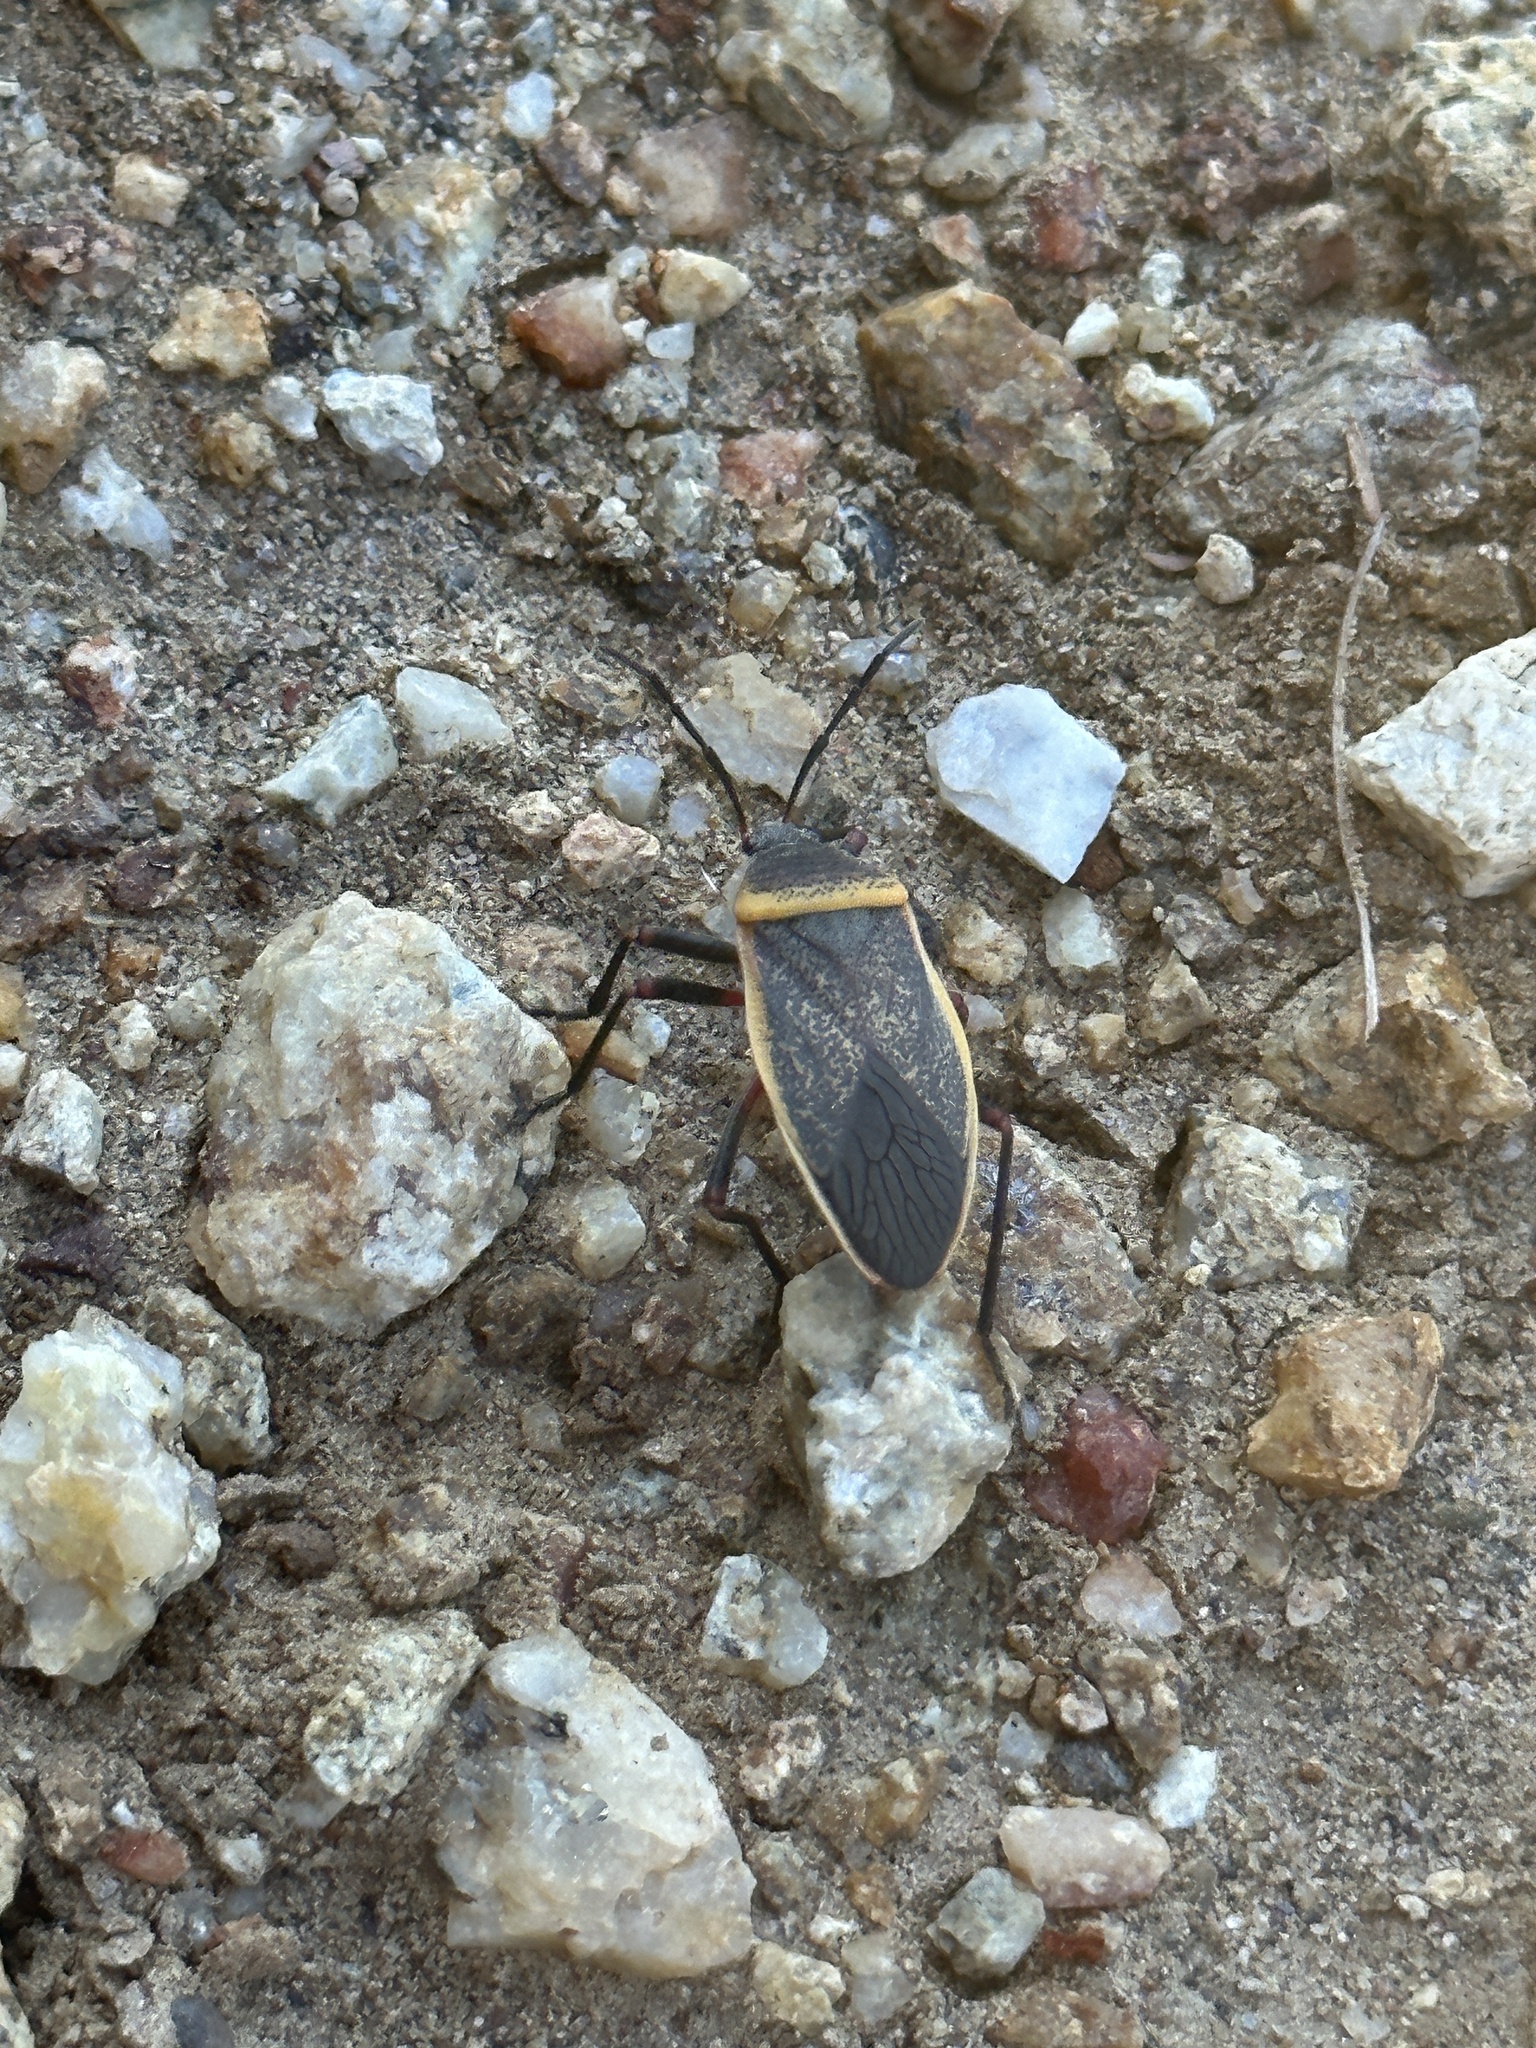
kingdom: Animalia
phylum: Arthropoda
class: Insecta
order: Hemiptera
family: Largidae
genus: Largus
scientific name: Largus californicus
